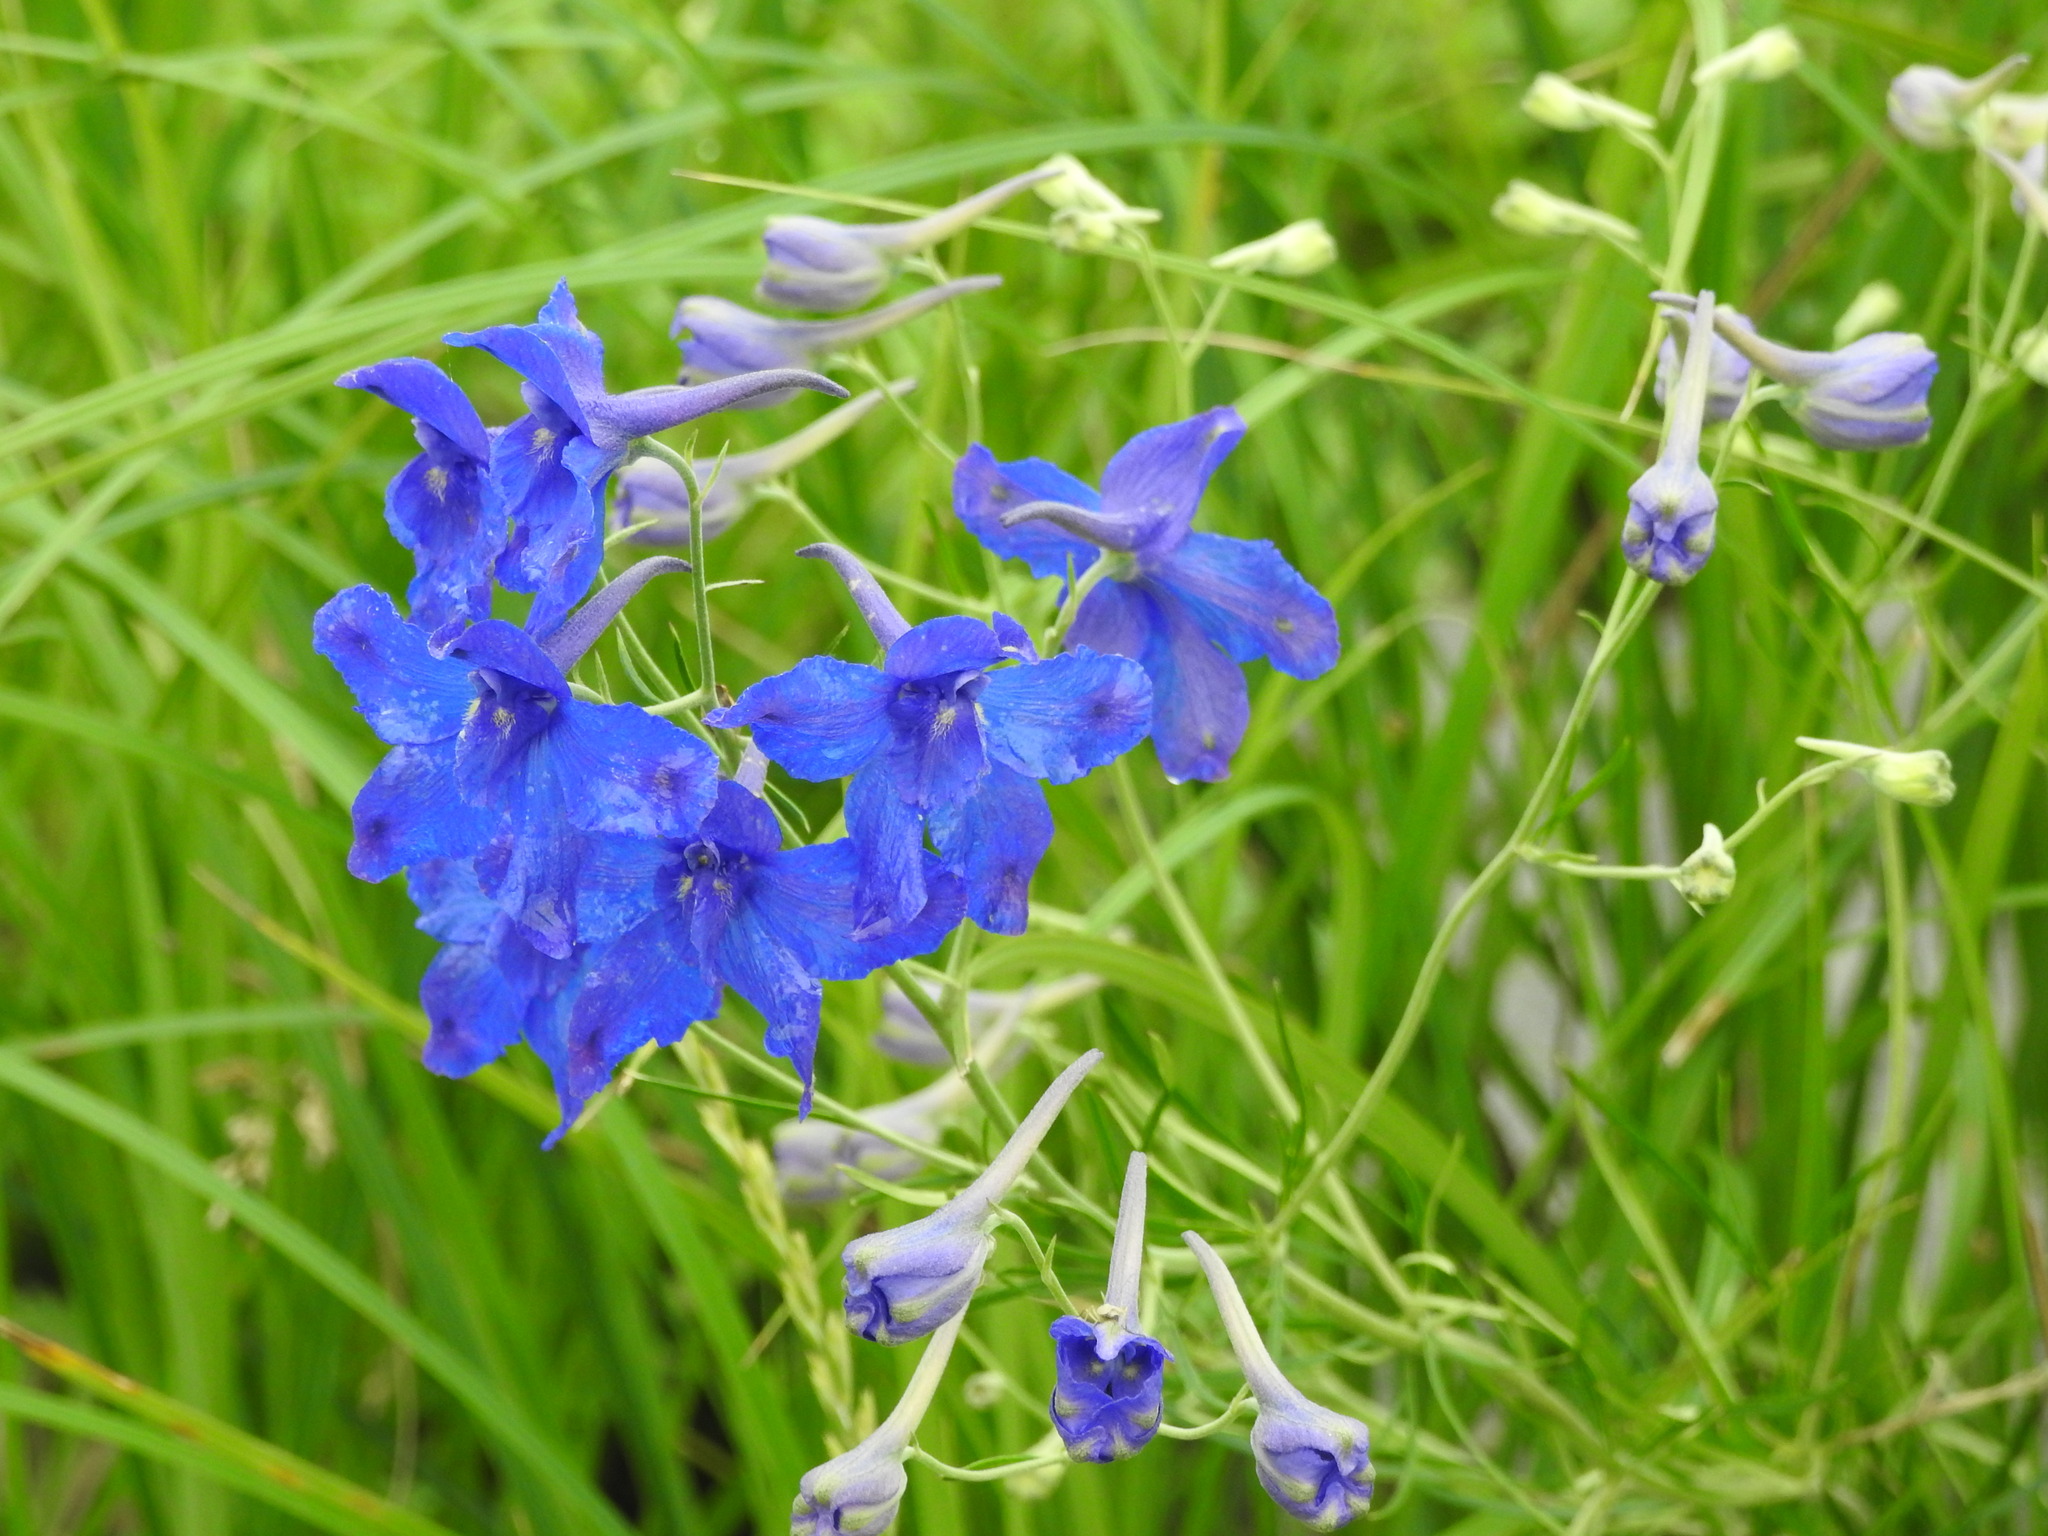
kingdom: Plantae
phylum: Tracheophyta
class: Magnoliopsida
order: Ranunculales
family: Ranunculaceae
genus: Delphinium
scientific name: Delphinium grandiflorum
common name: Siberian larkspur
